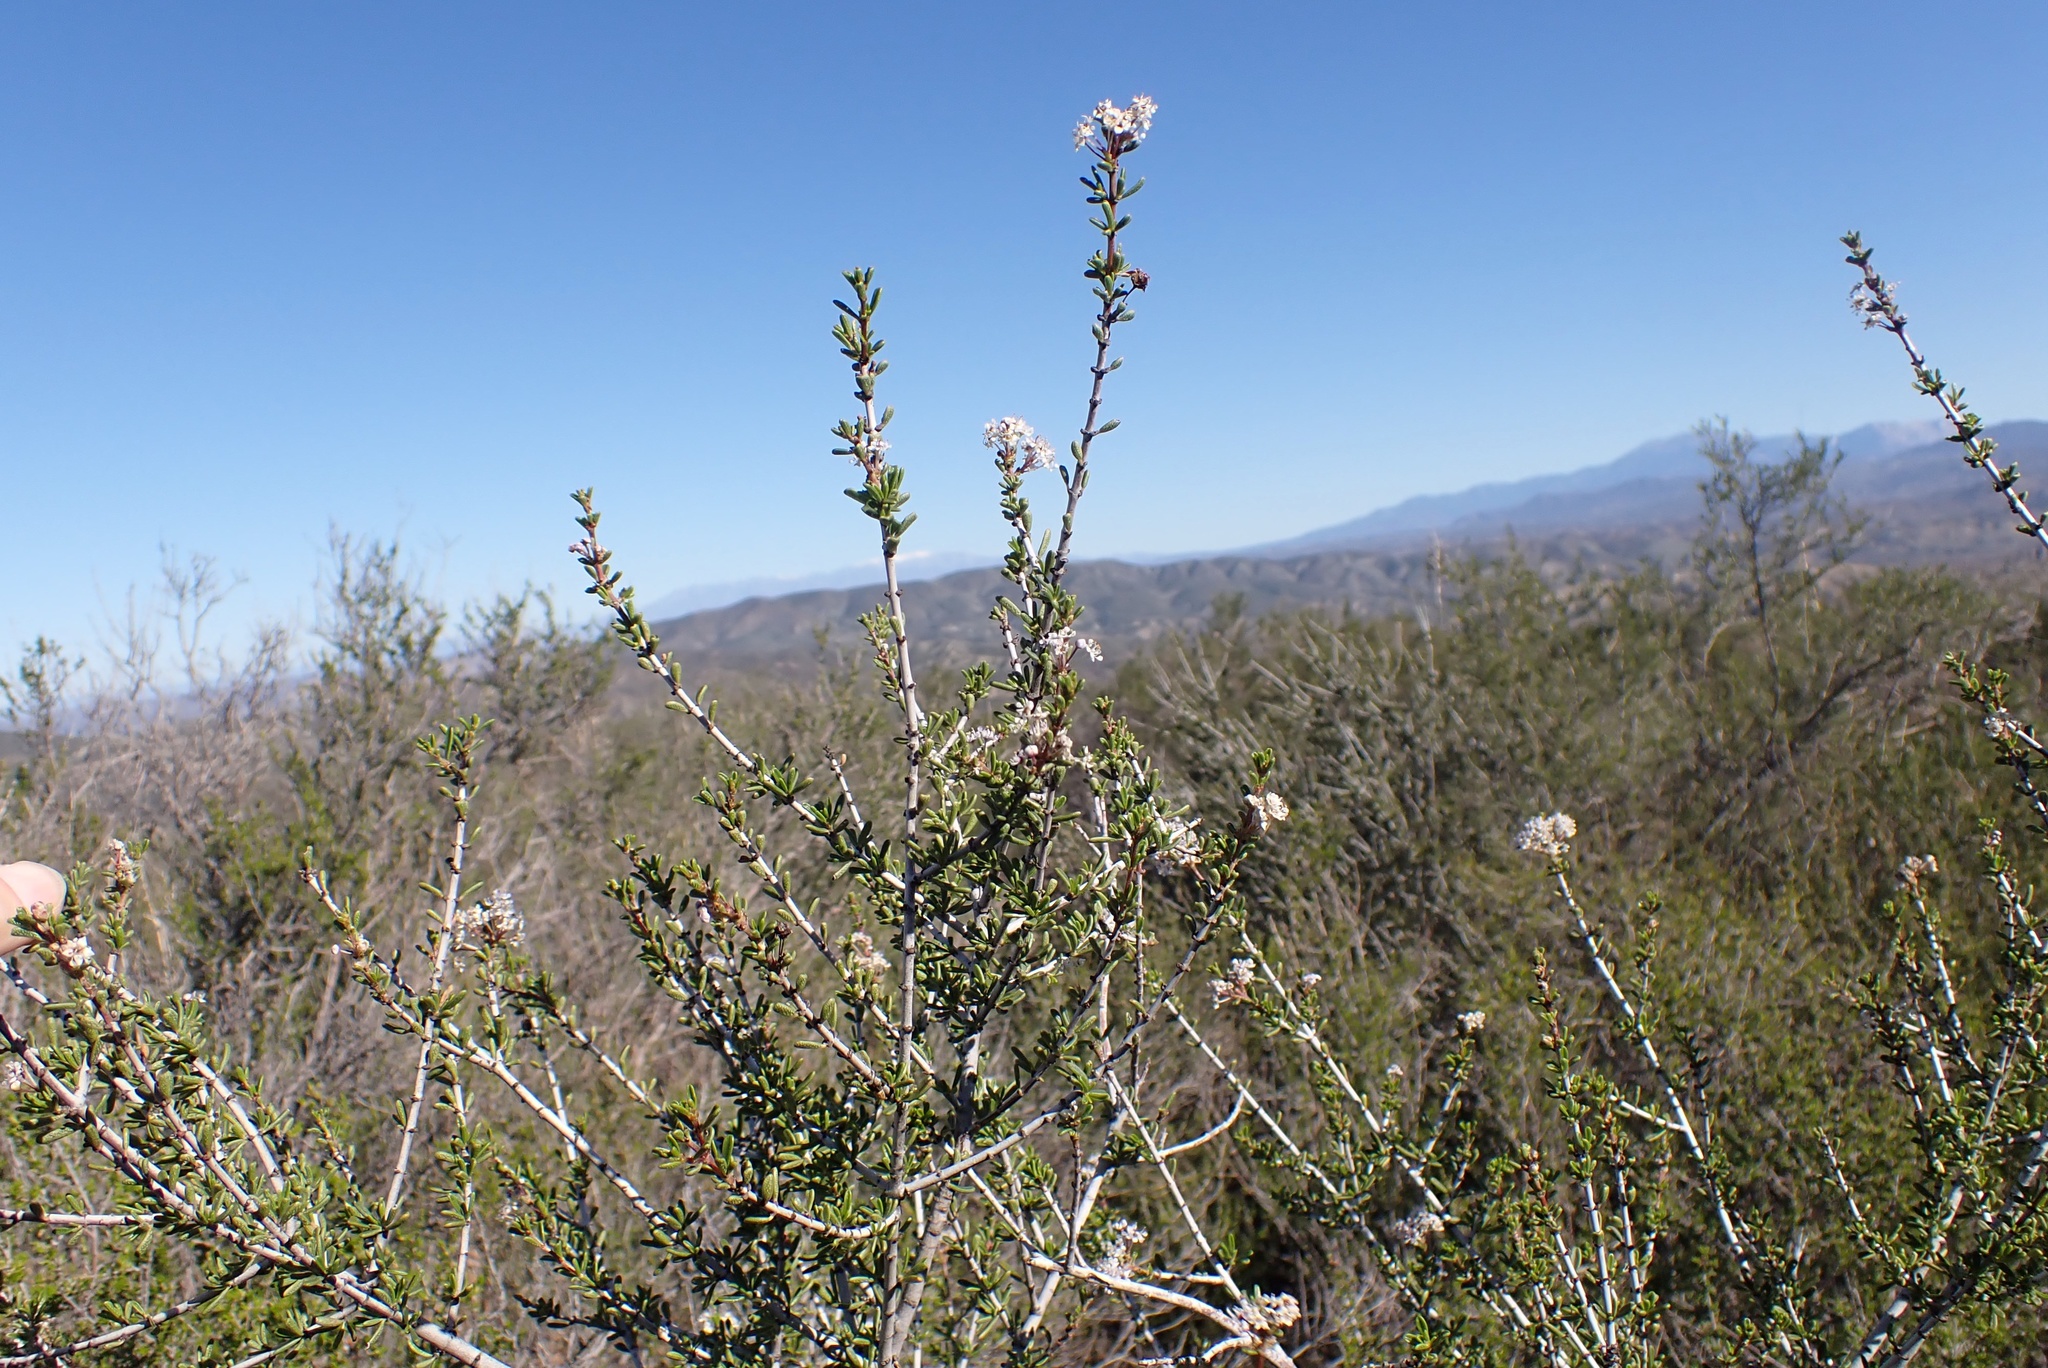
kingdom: Plantae
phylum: Tracheophyta
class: Magnoliopsida
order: Rosales
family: Rhamnaceae
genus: Ceanothus
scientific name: Ceanothus ophiochilus
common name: Vail lake ceanothus
